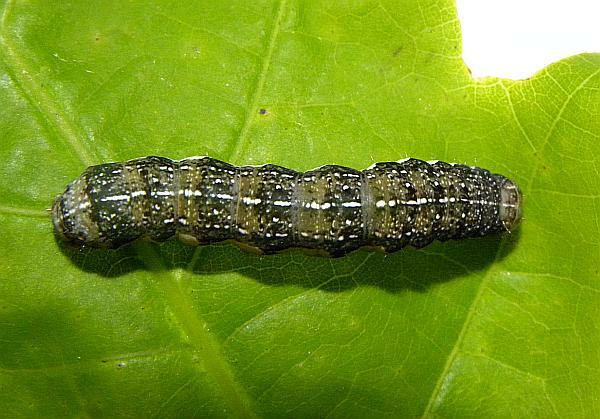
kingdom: Animalia
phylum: Arthropoda
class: Insecta
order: Lepidoptera
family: Noctuidae
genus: Orthosia
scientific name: Orthosia rubescens
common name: Ruby quaker
